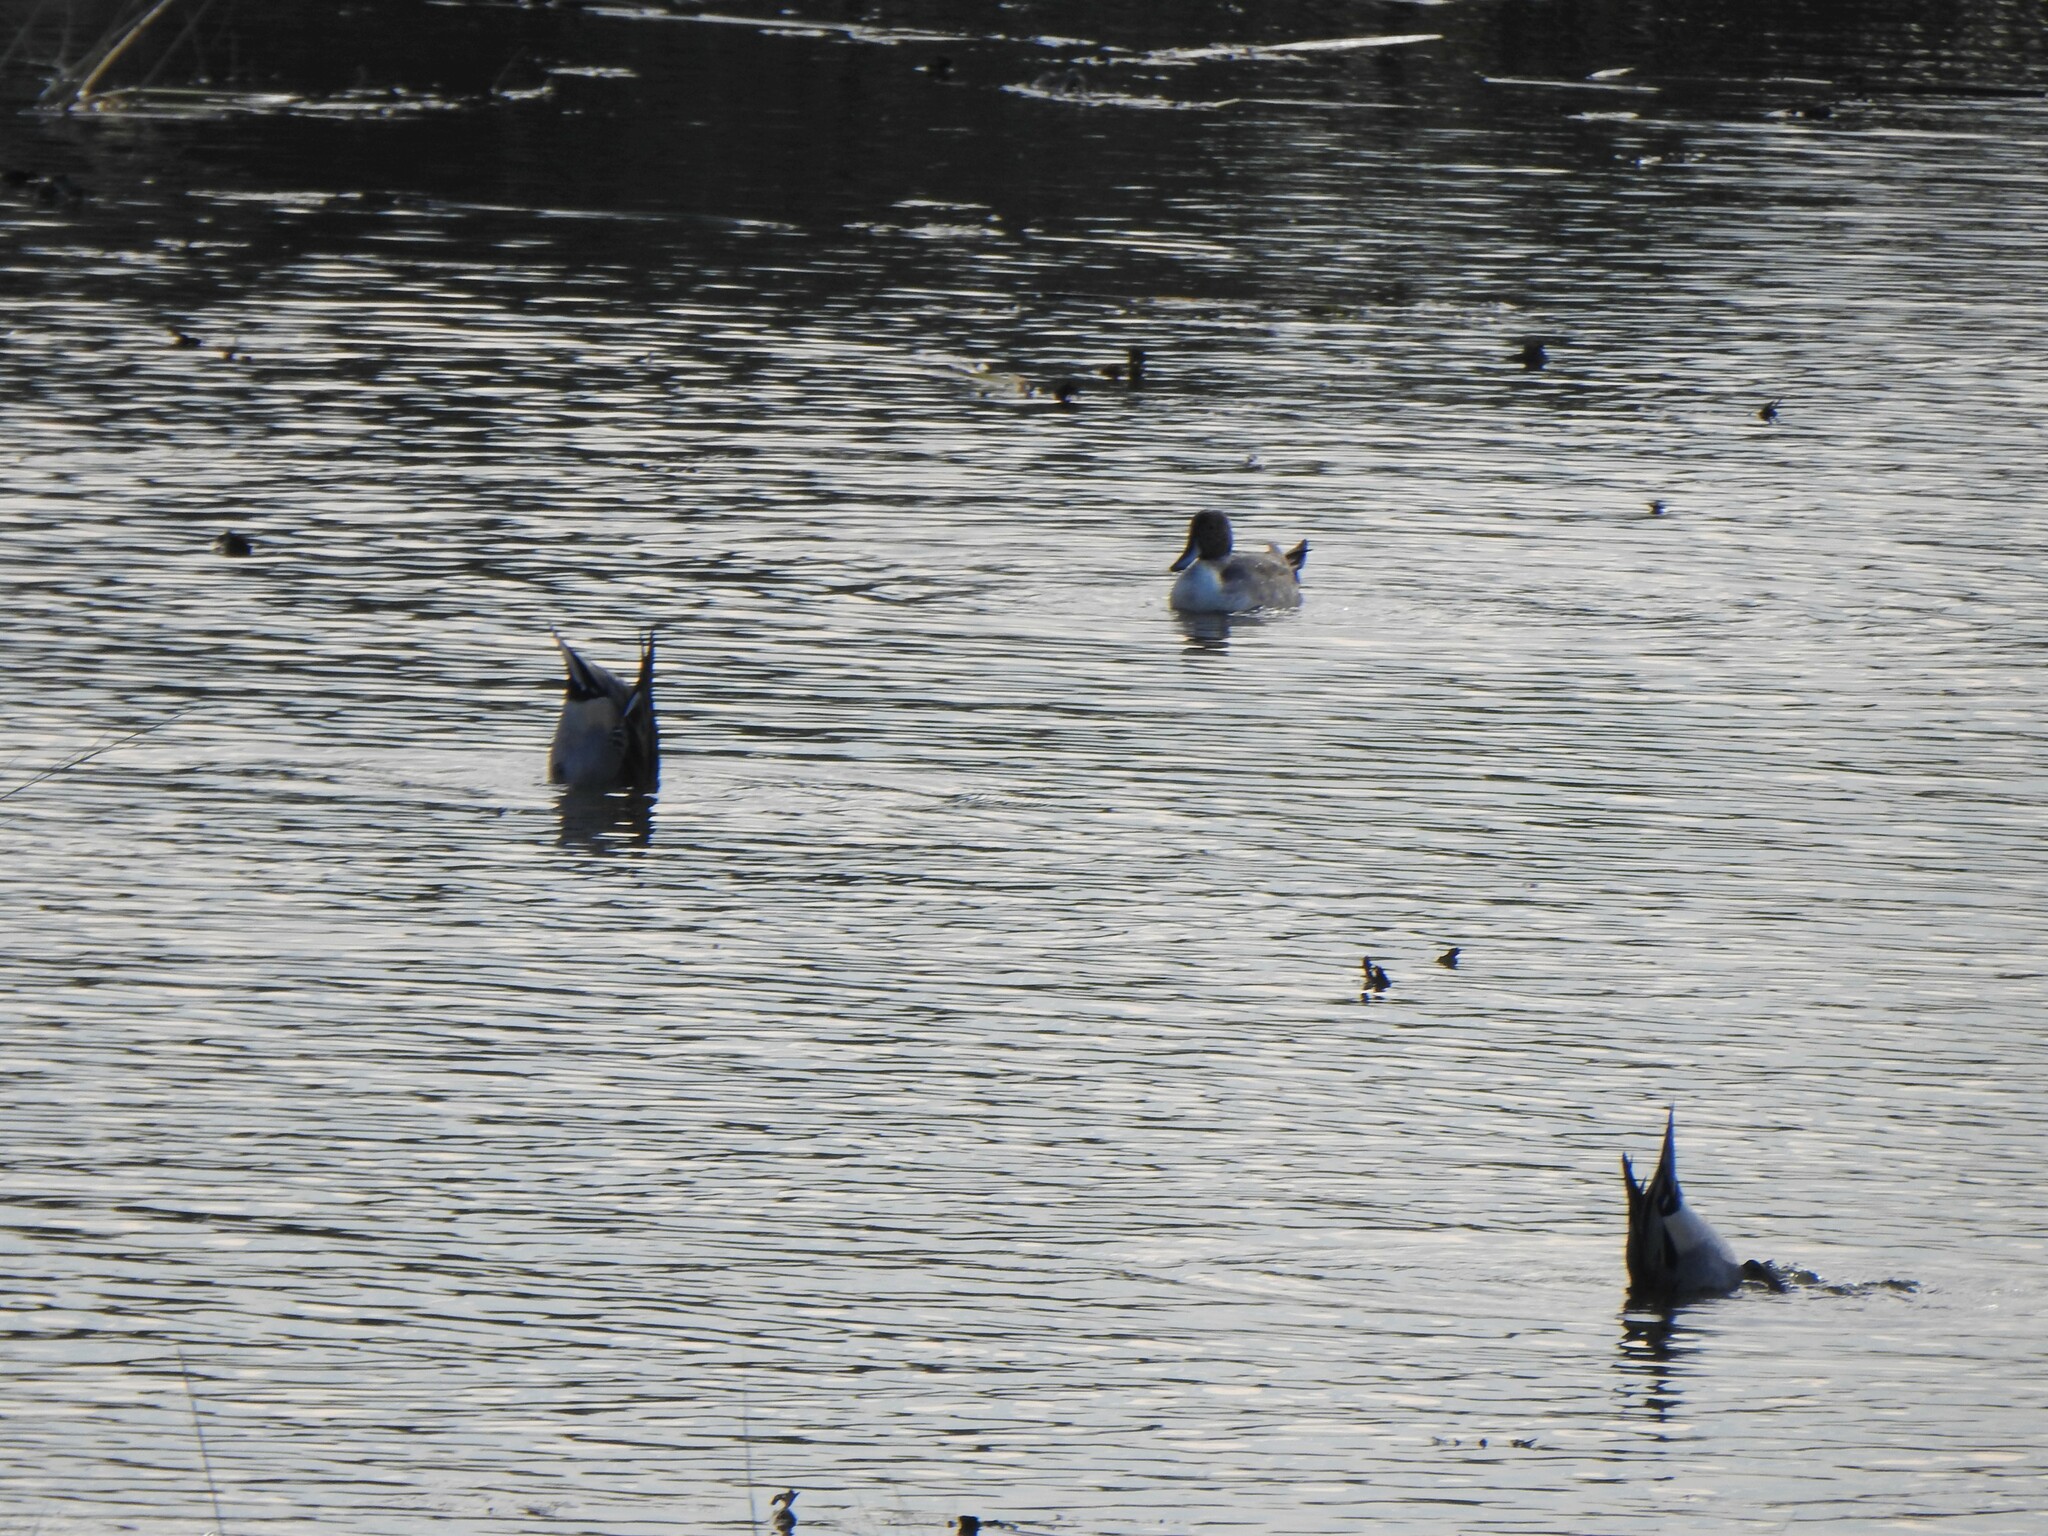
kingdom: Animalia
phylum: Chordata
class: Aves
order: Anseriformes
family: Anatidae
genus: Anas
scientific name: Anas acuta
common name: Northern pintail
